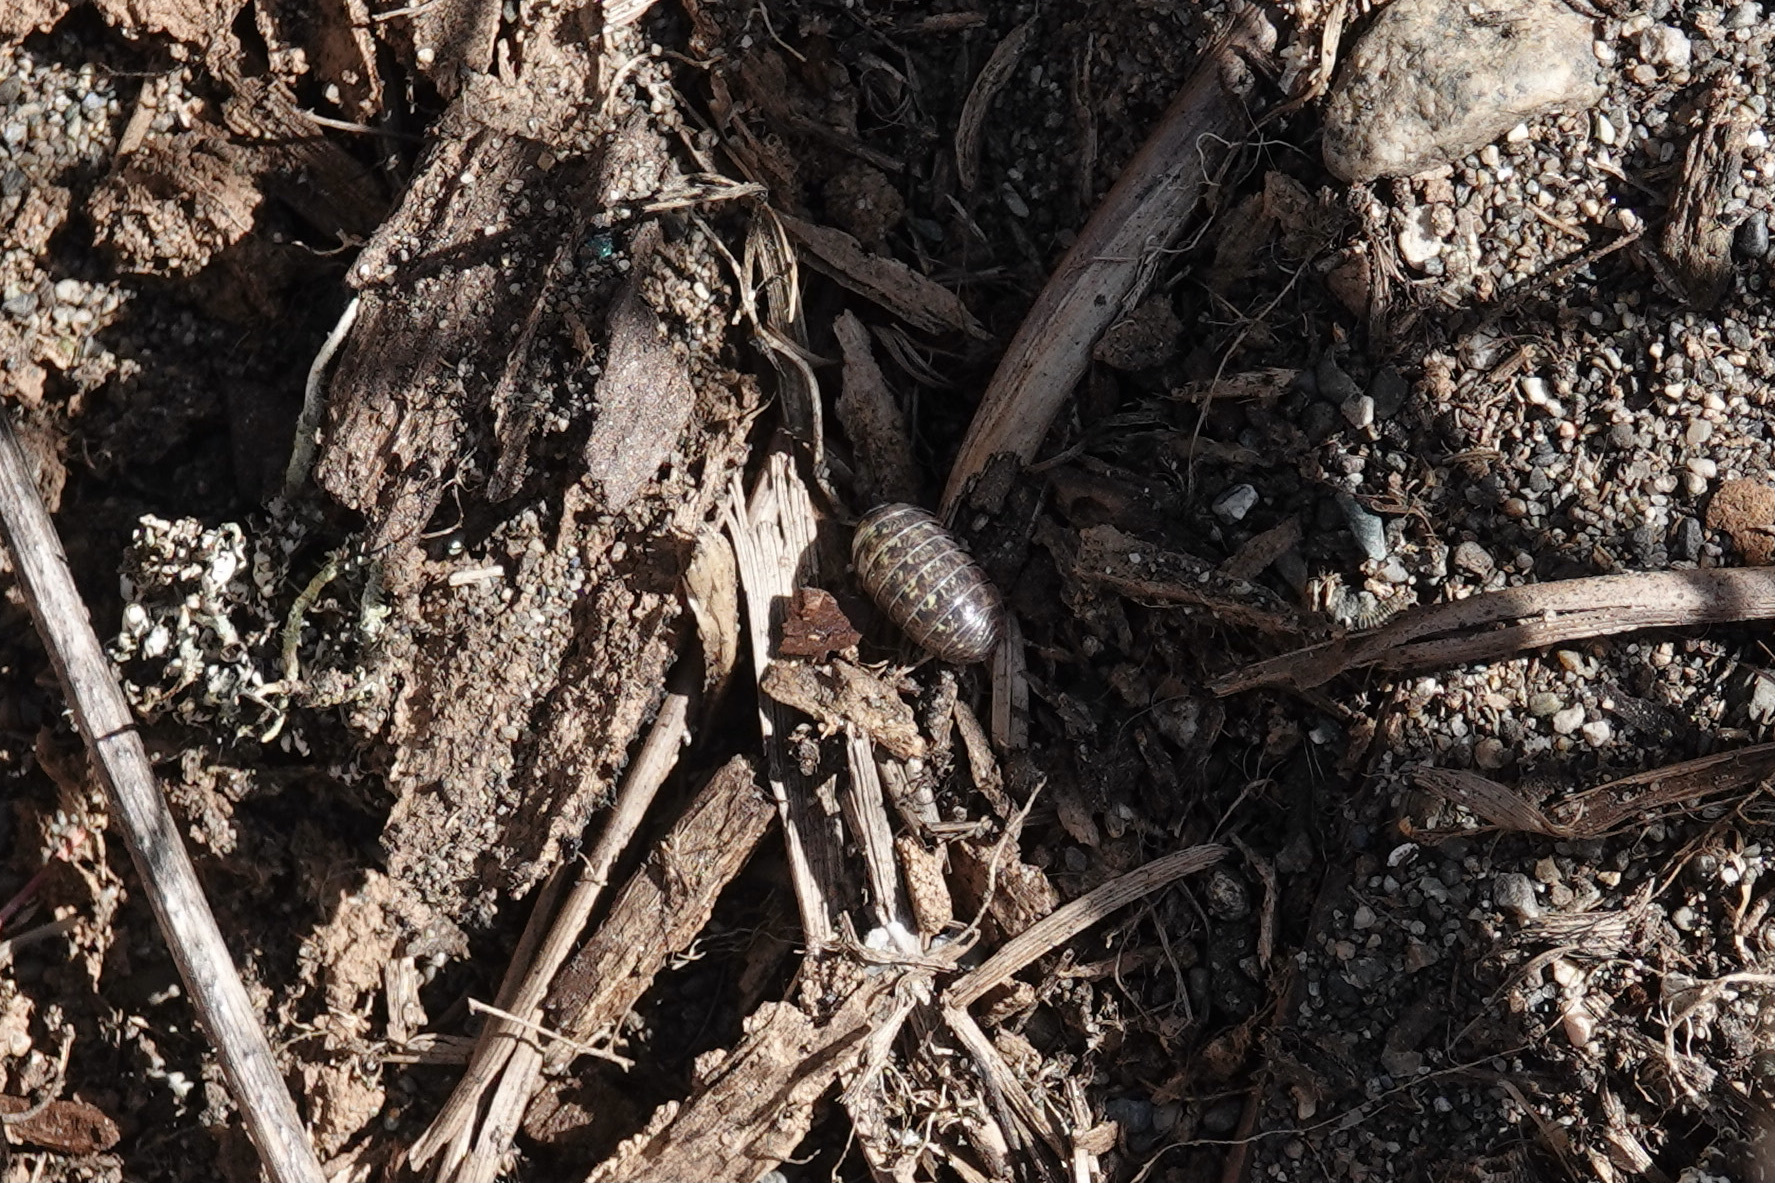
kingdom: Animalia
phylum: Arthropoda
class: Malacostraca
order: Isopoda
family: Armadillidiidae
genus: Armadillidium
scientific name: Armadillidium vulgare
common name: Common pill woodlouse
